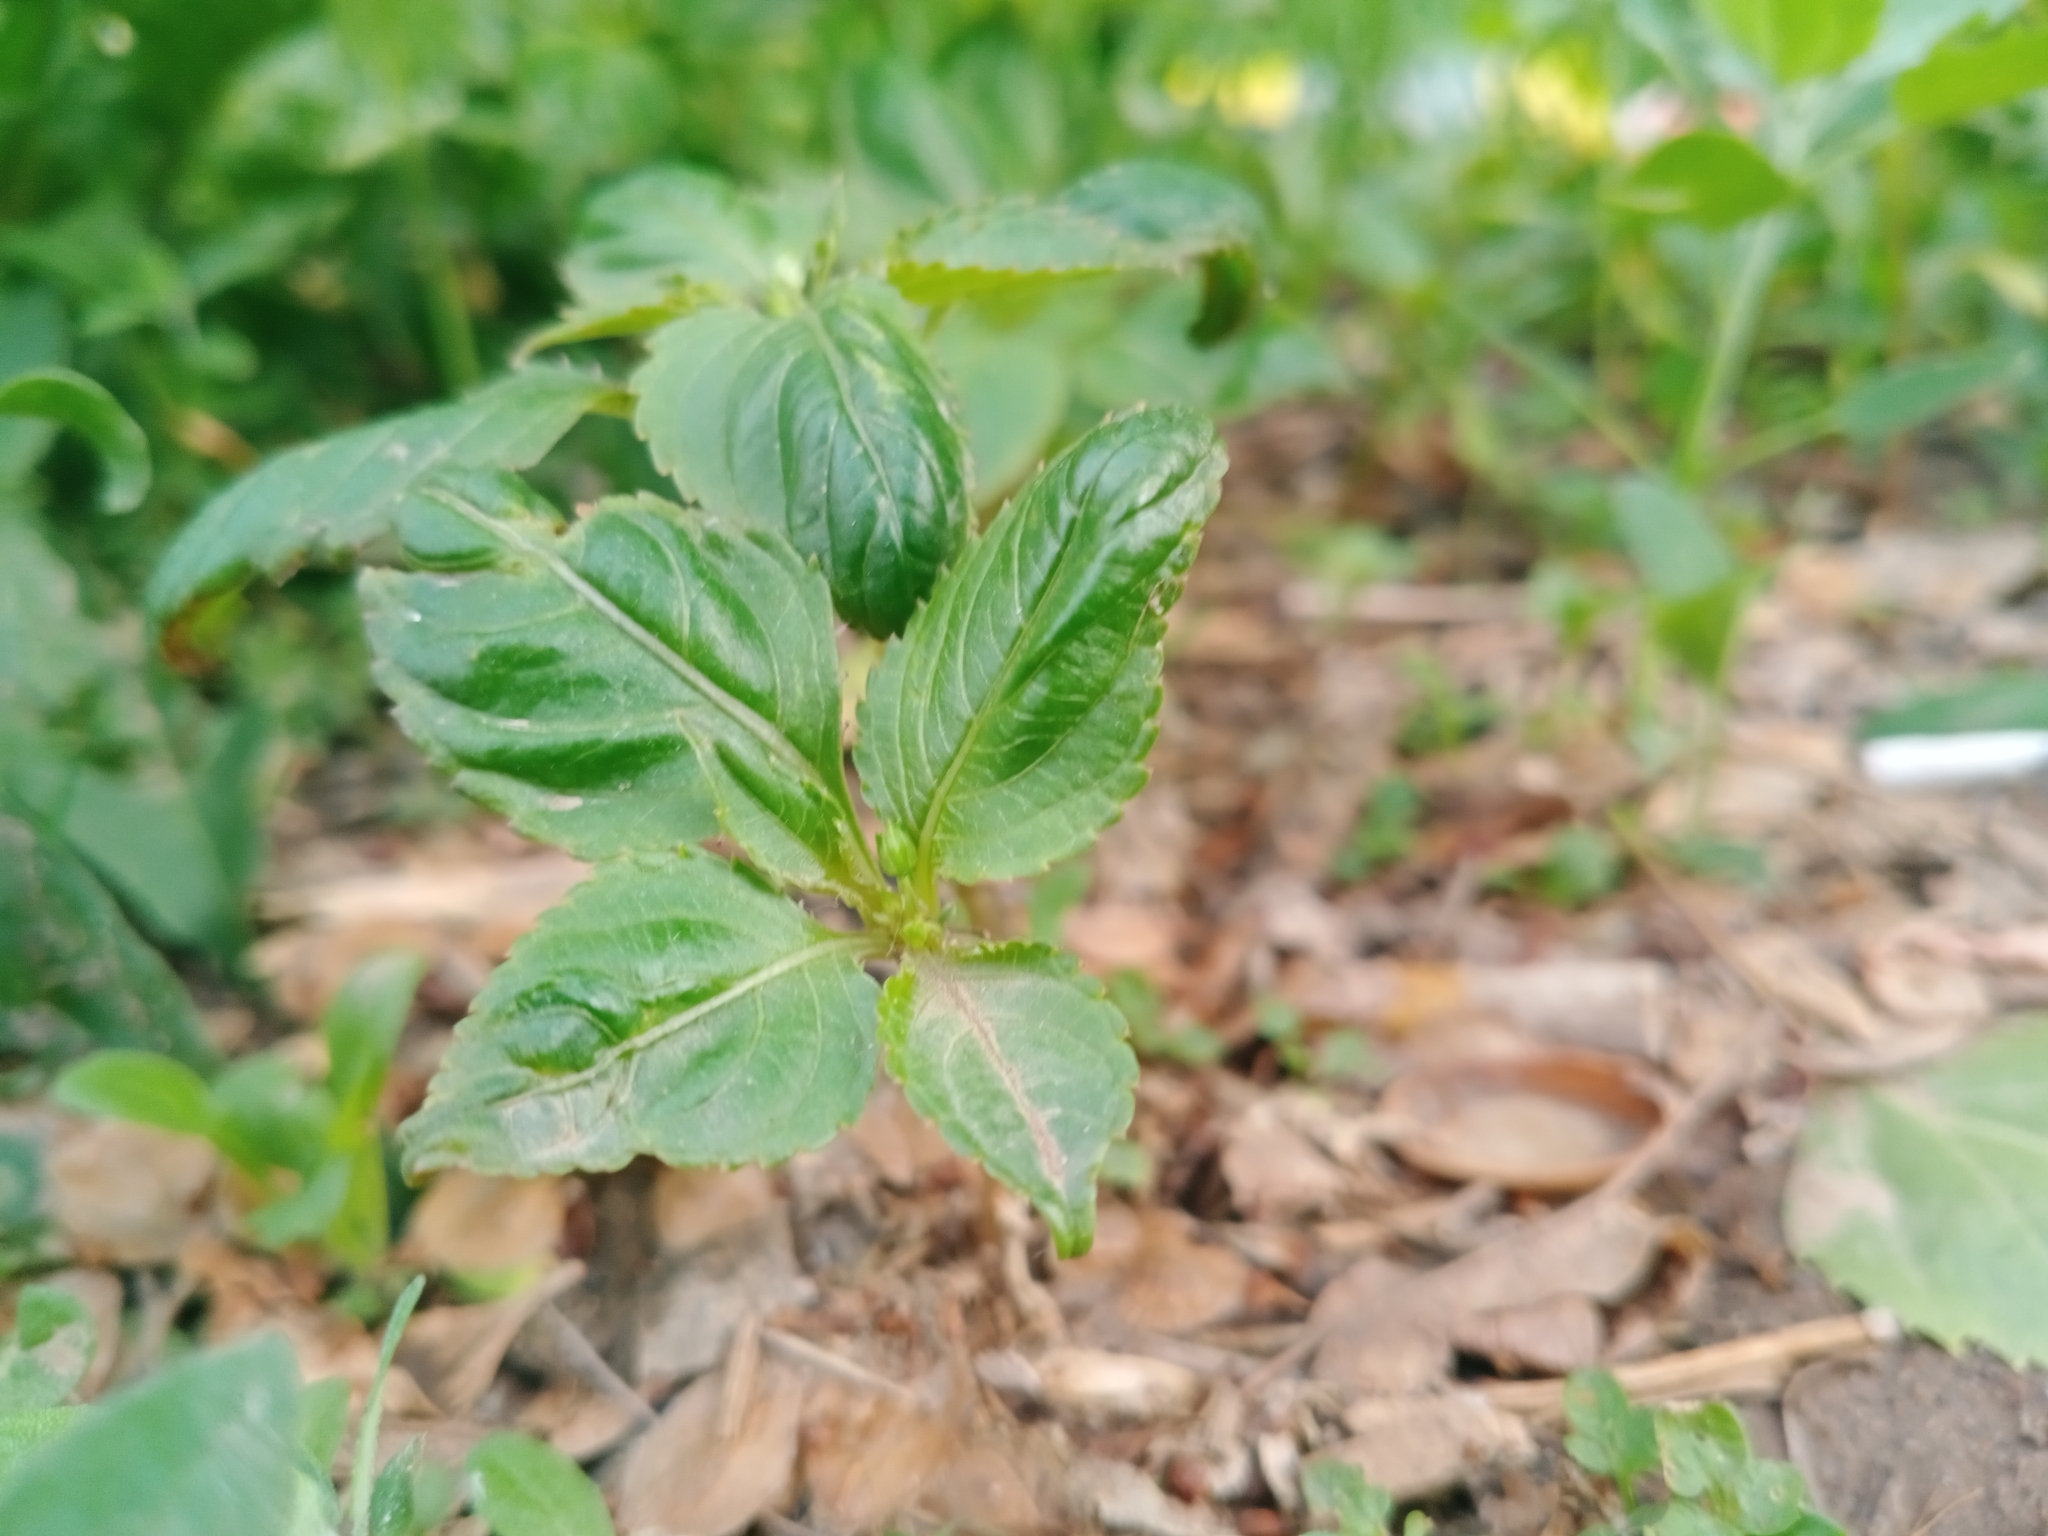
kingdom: Plantae
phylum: Tracheophyta
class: Magnoliopsida
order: Ericales
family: Balsaminaceae
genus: Impatiens
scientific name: Impatiens parviflora
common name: Small balsam
